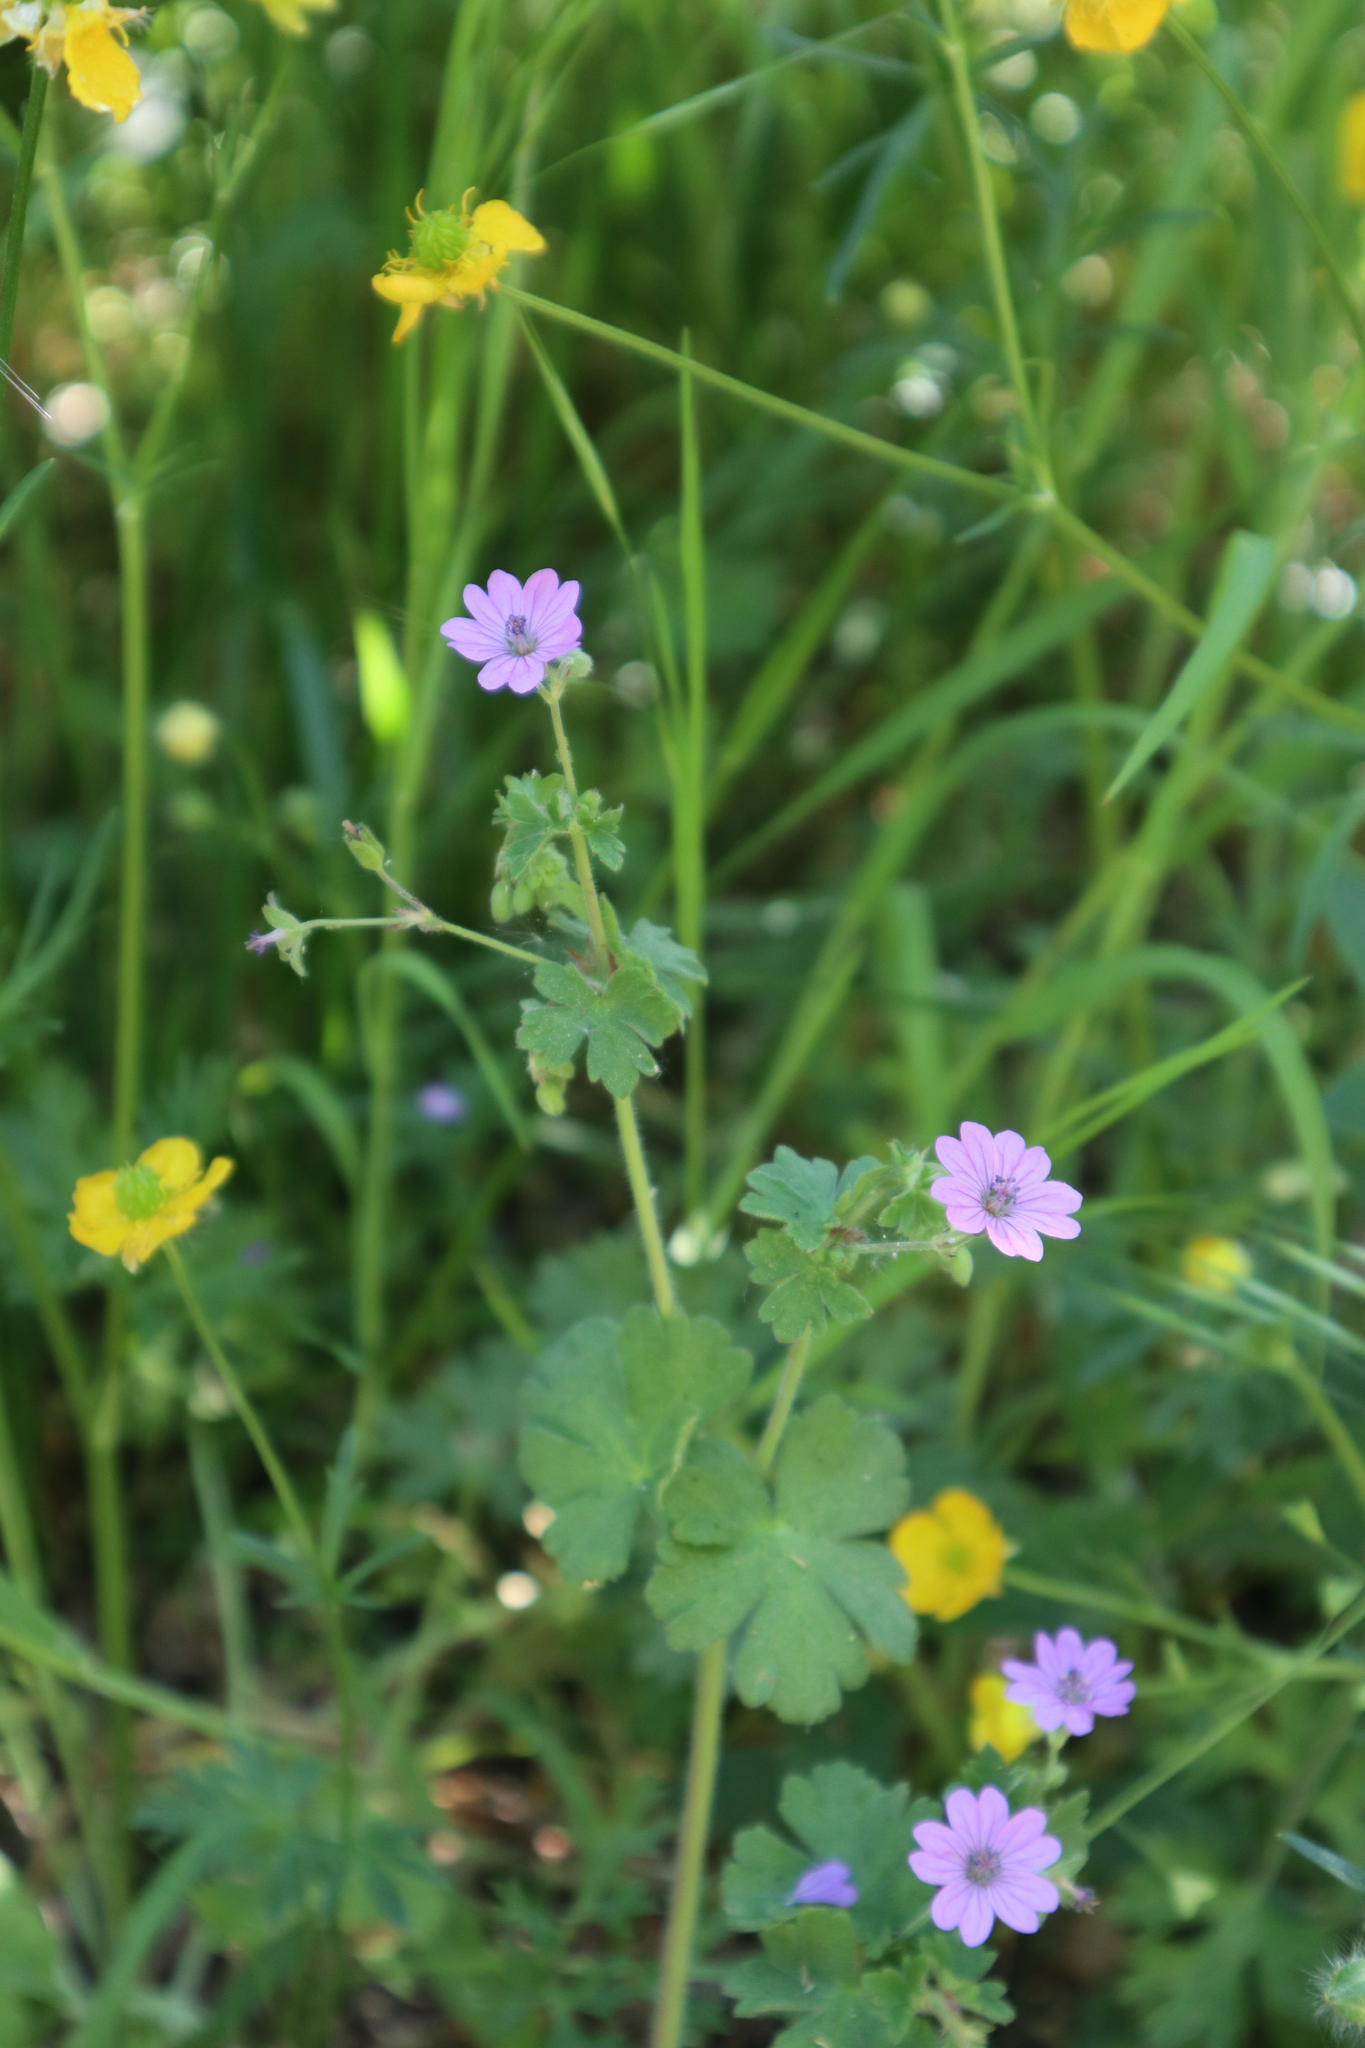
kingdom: Plantae
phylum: Tracheophyta
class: Magnoliopsida
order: Geraniales
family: Geraniaceae
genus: Geranium
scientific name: Geranium molle
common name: Dove's-foot crane's-bill
